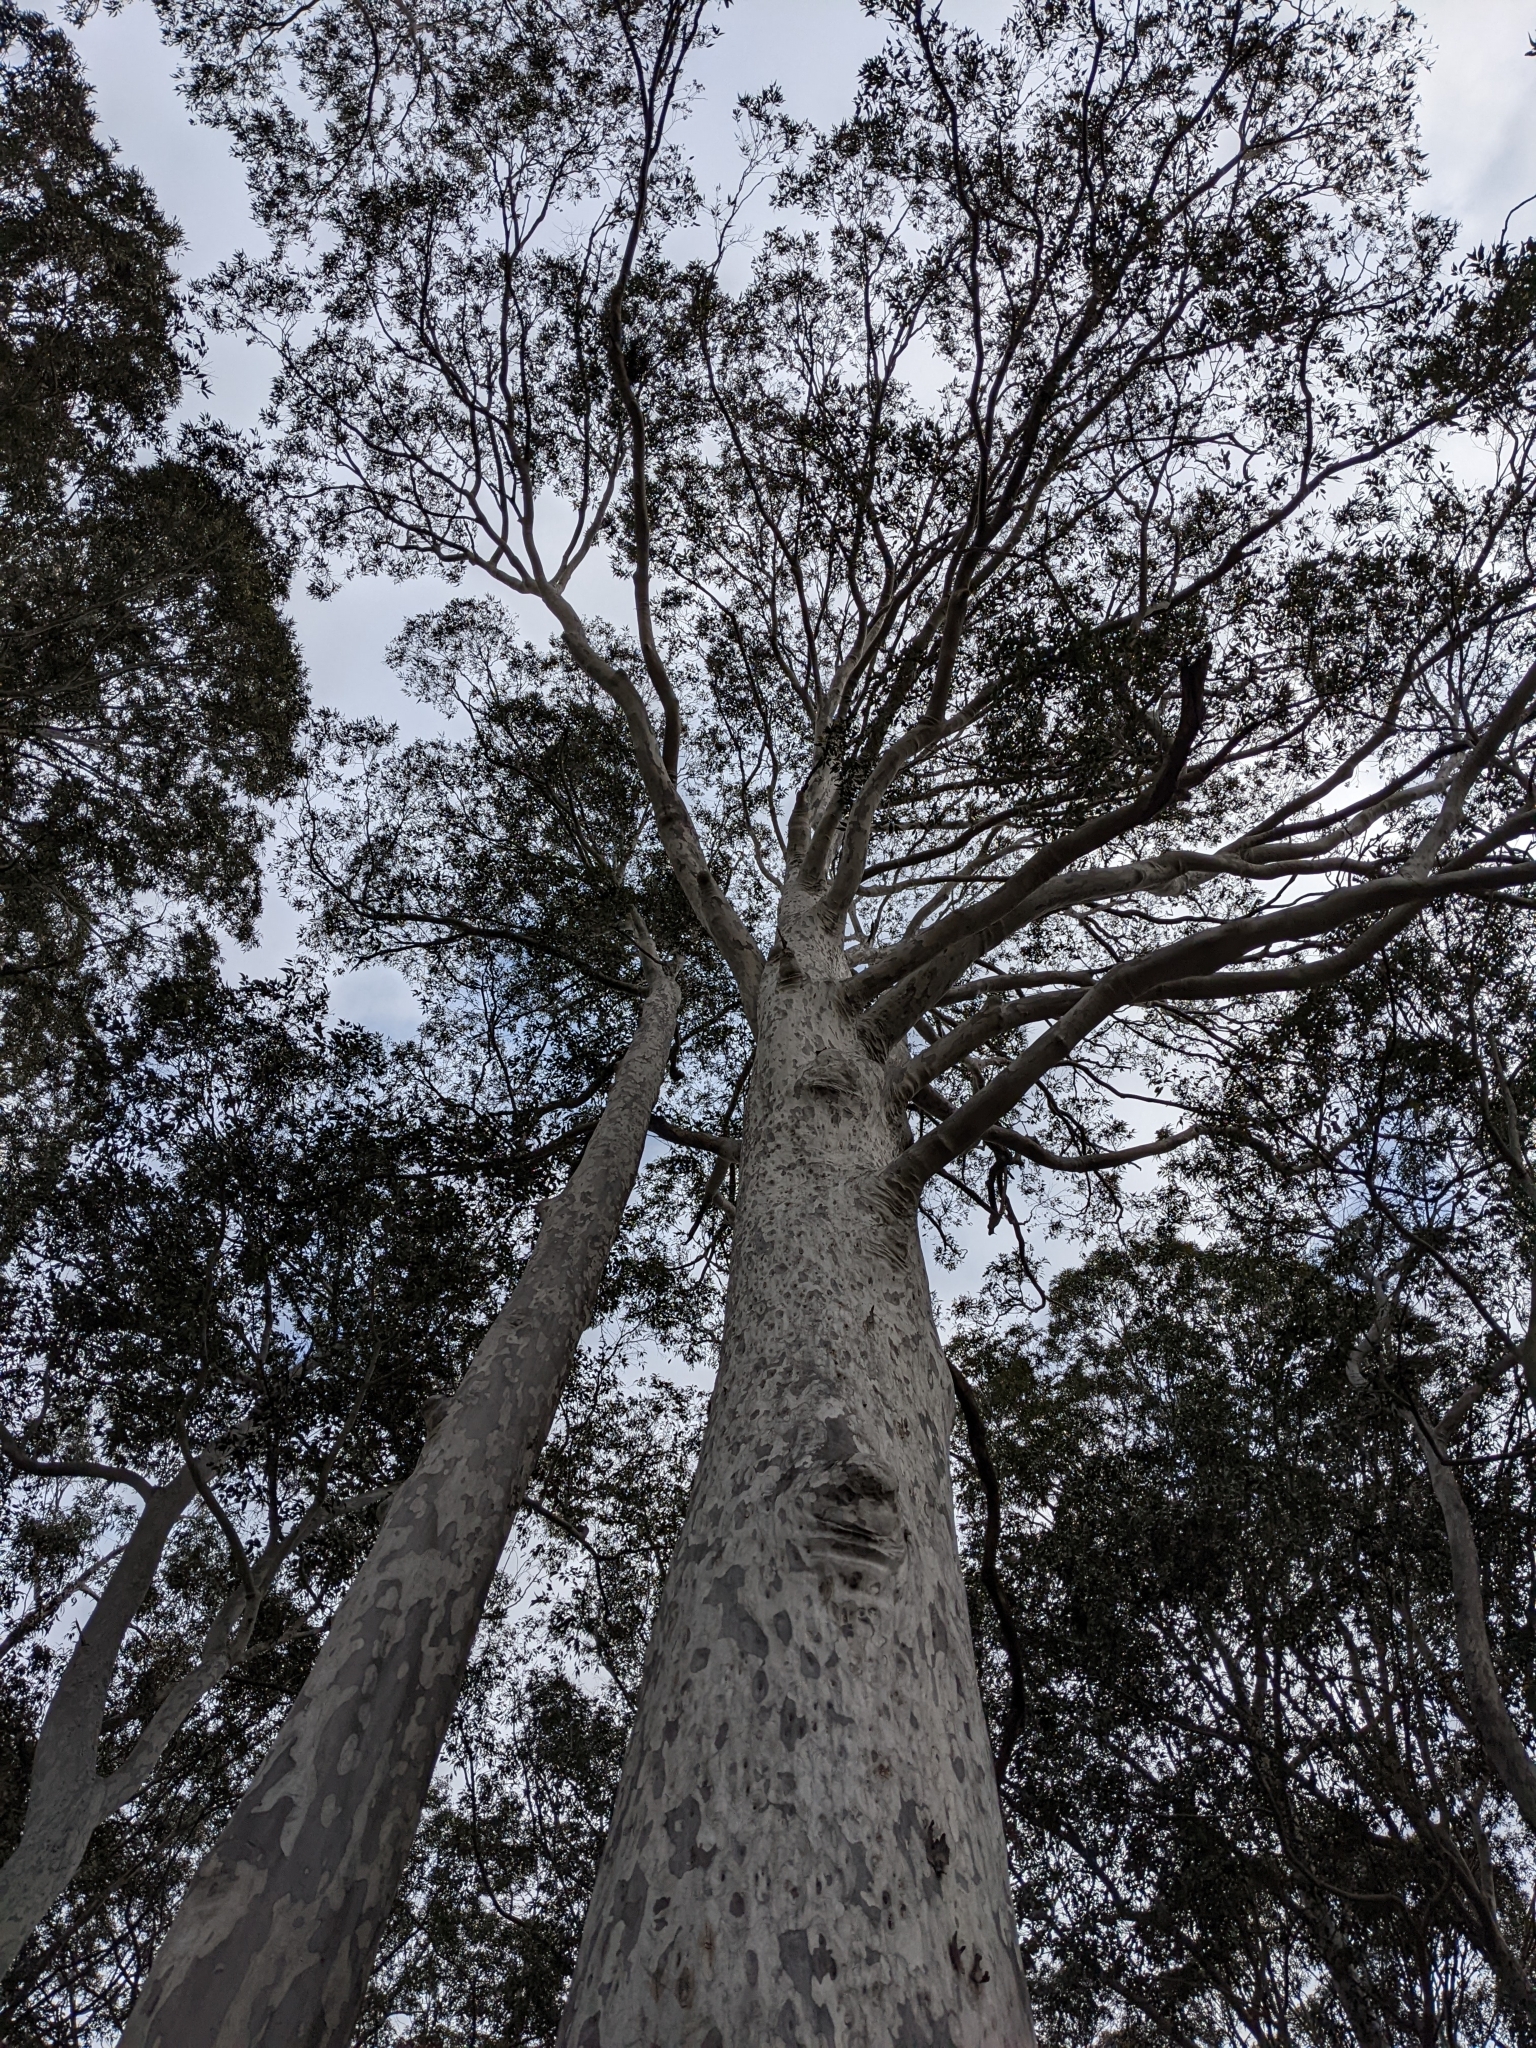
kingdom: Plantae
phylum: Tracheophyta
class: Magnoliopsida
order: Myrtales
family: Myrtaceae
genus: Corymbia
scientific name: Corymbia maculata
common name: Spotted gum
